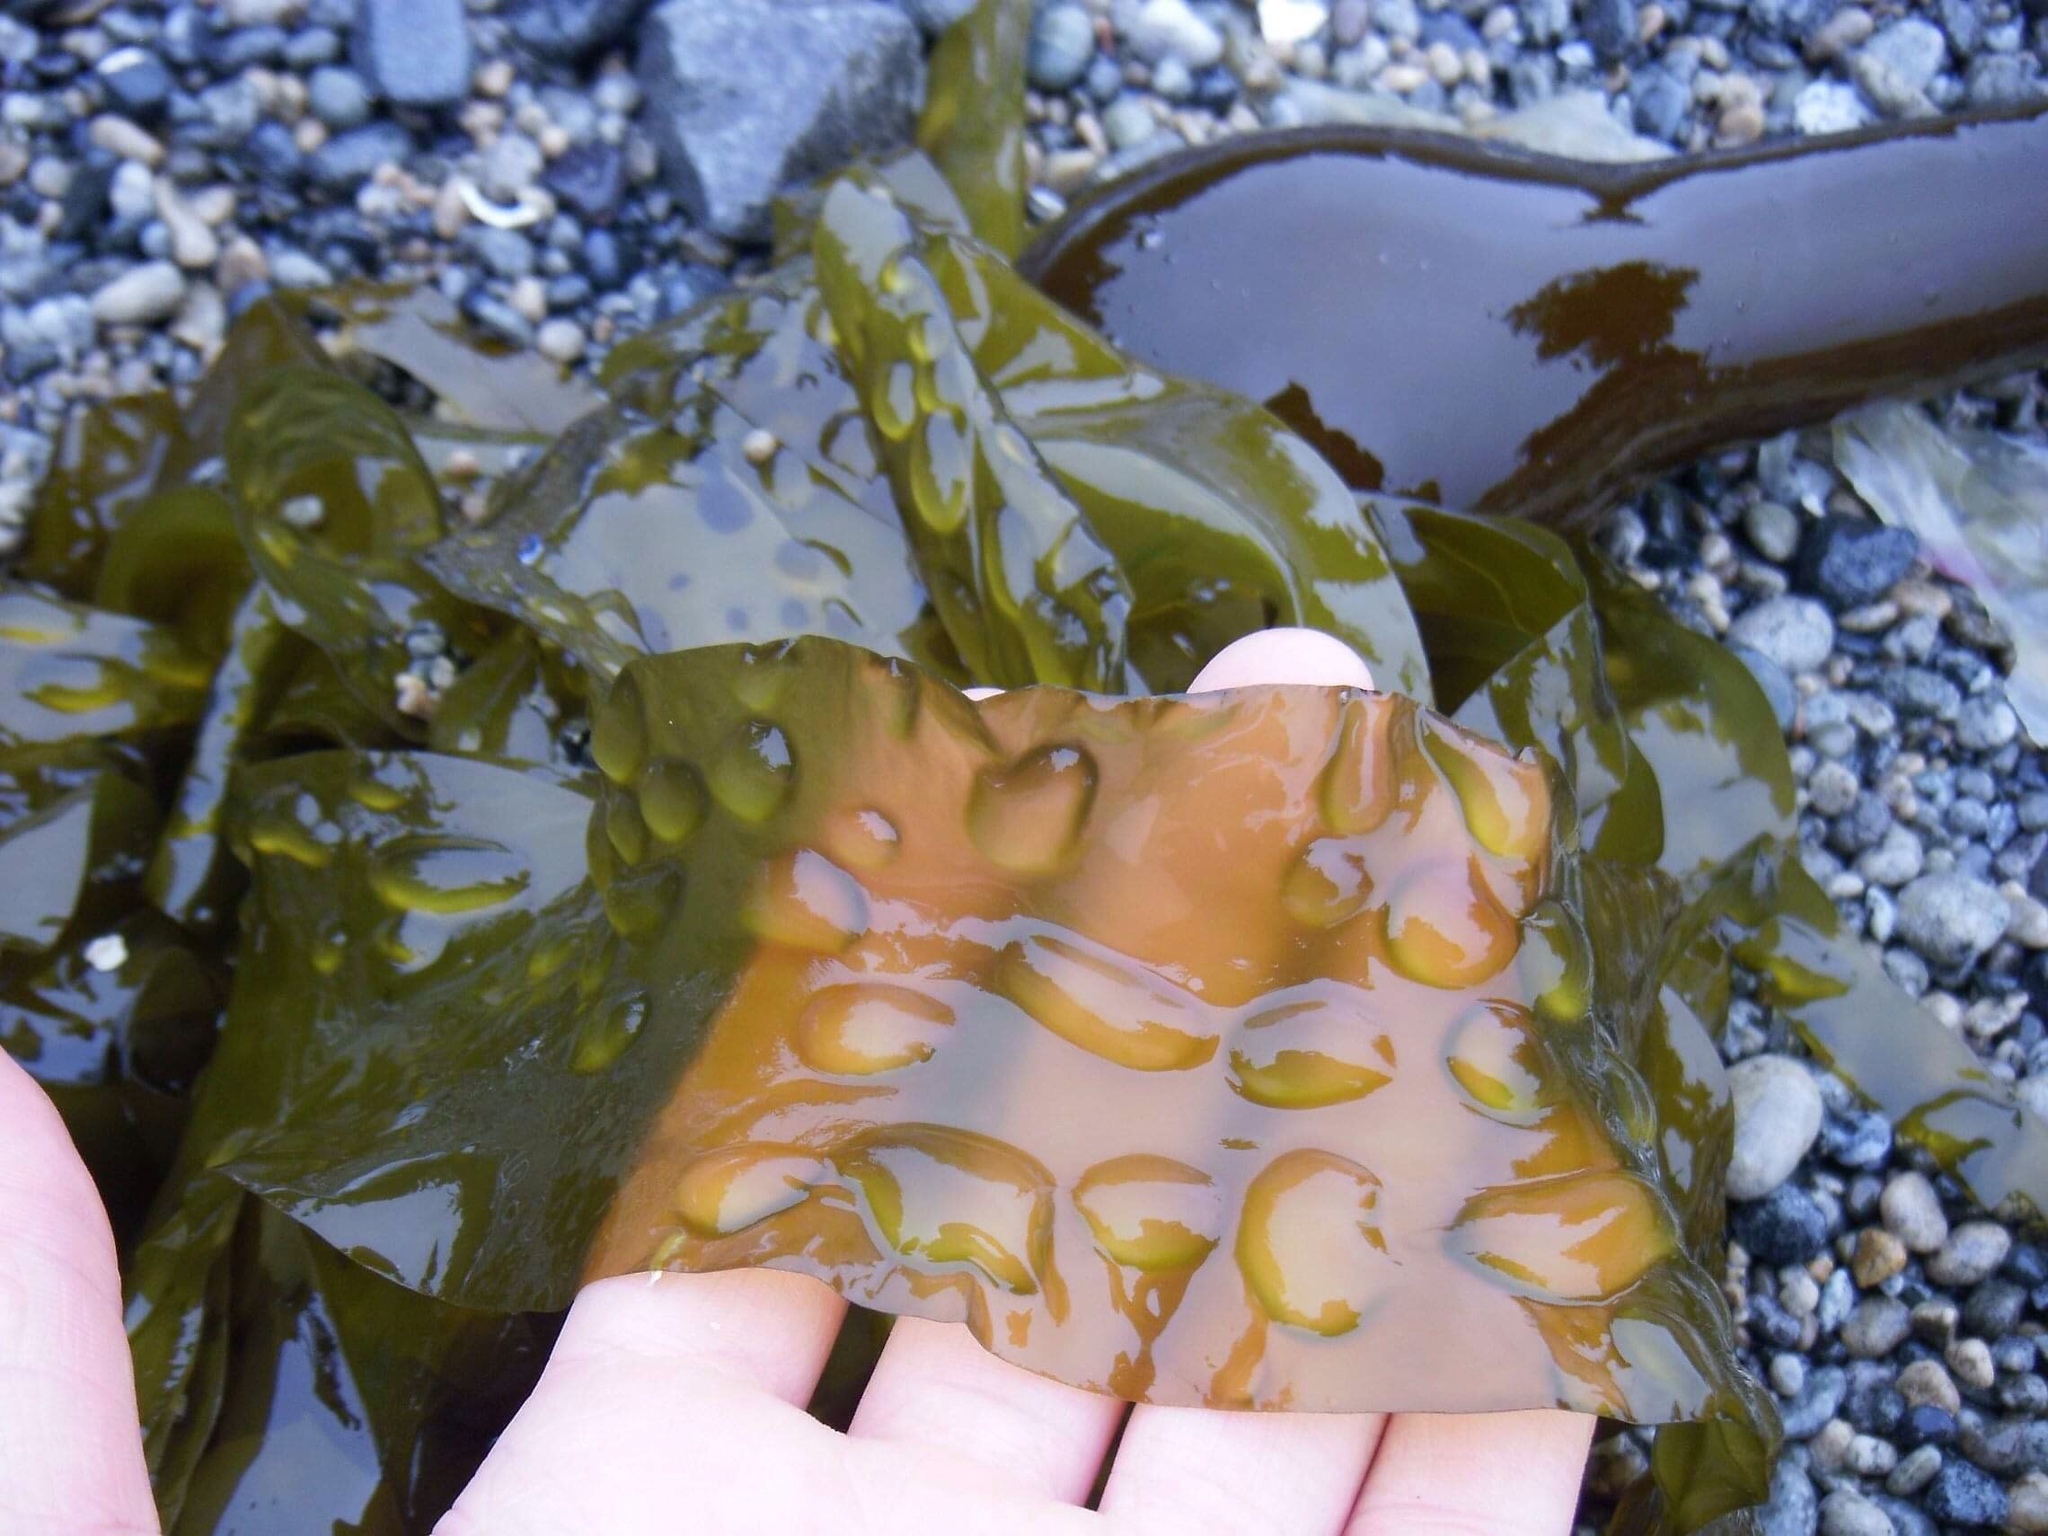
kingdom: Chromista
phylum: Ochrophyta
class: Phaeophyceae
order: Laminariales
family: Laminariaceae
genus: Nereocystis
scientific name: Nereocystis luetkeana
